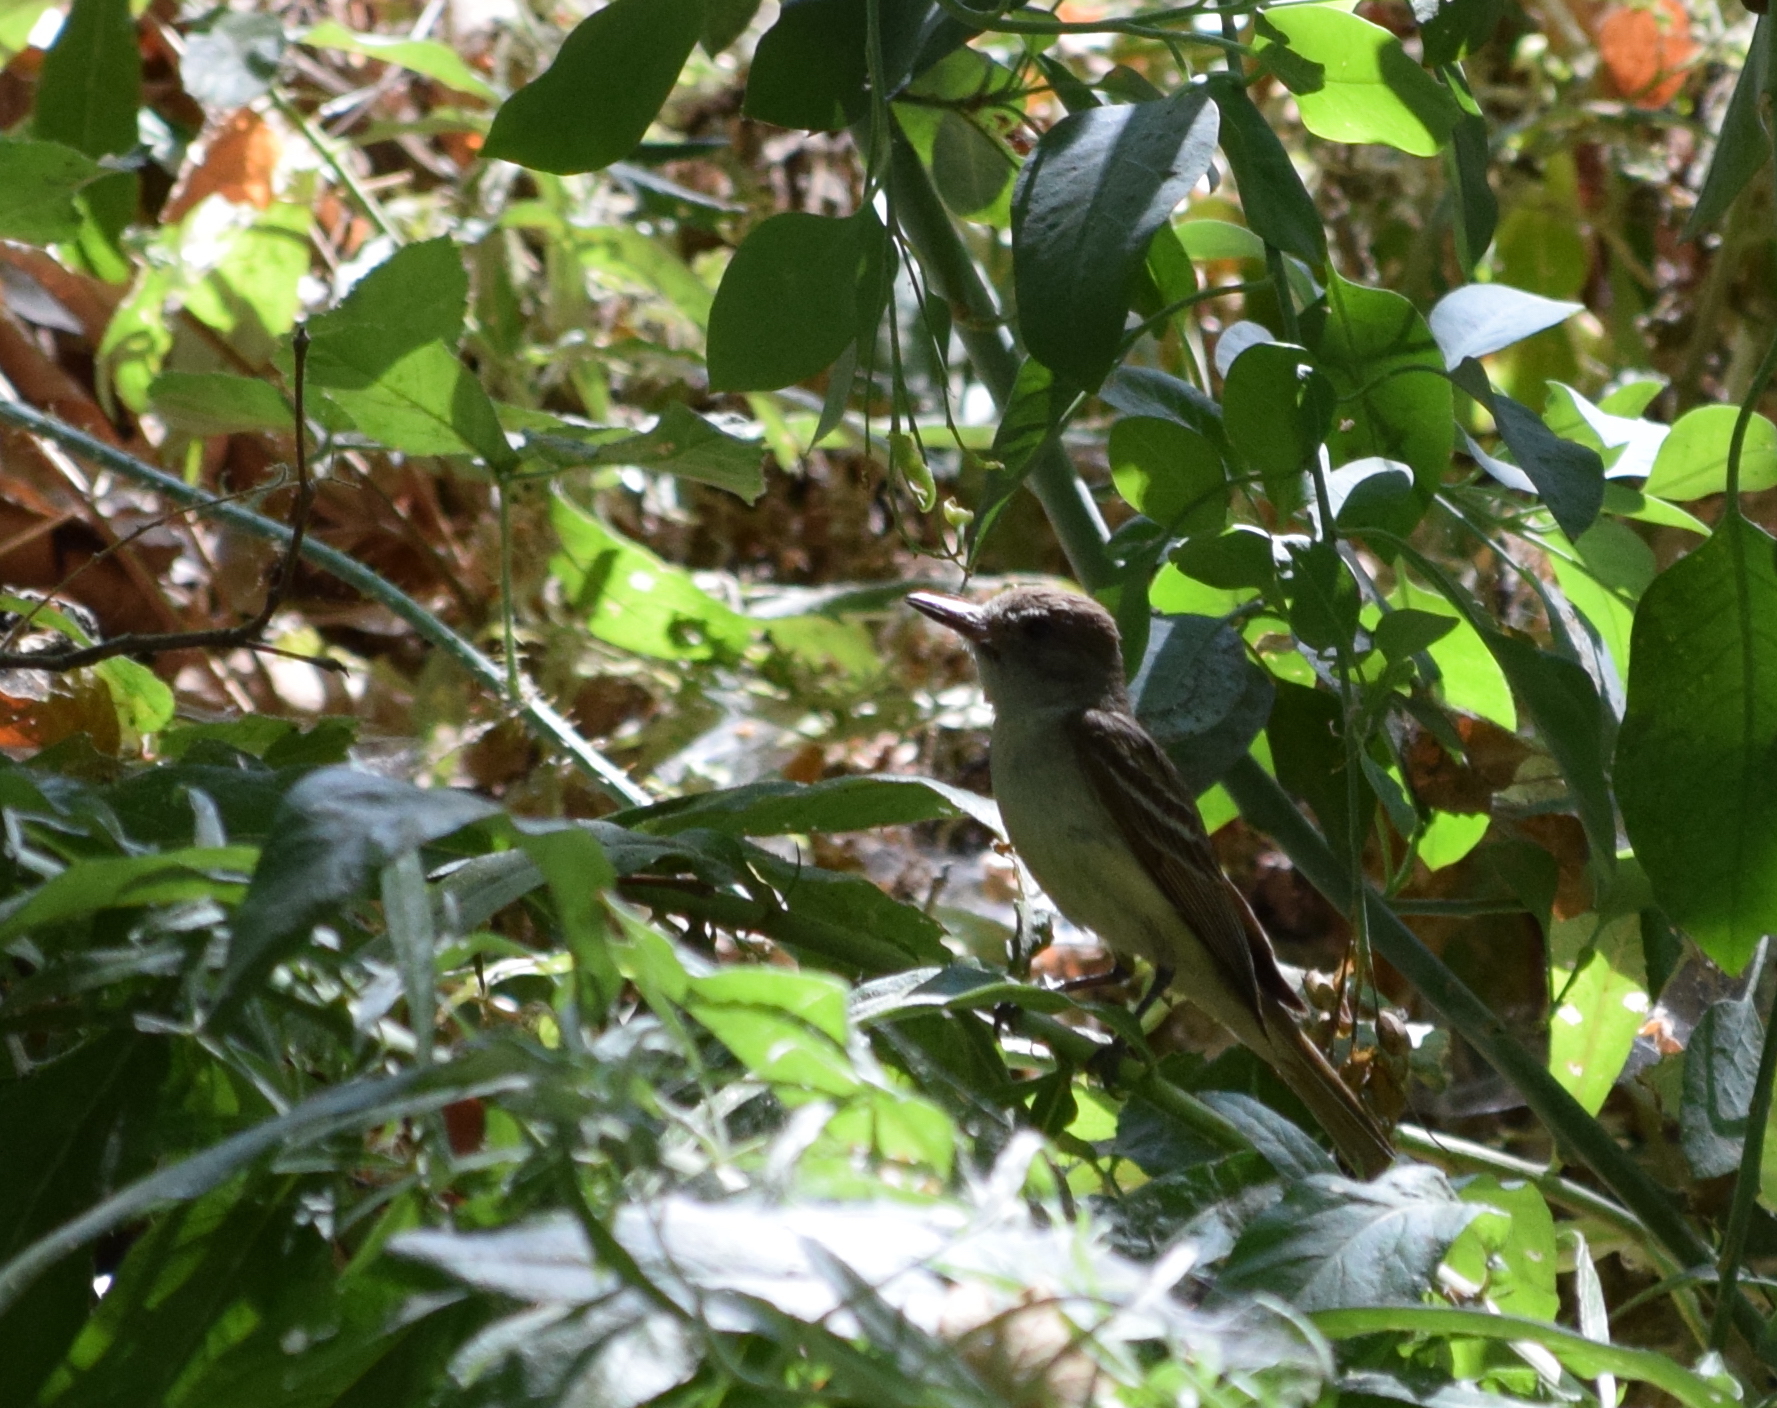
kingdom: Animalia
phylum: Chordata
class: Aves
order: Passeriformes
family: Tyrannidae
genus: Myiarchus
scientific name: Myiarchus cinerascens
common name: Ash-throated flycatcher
